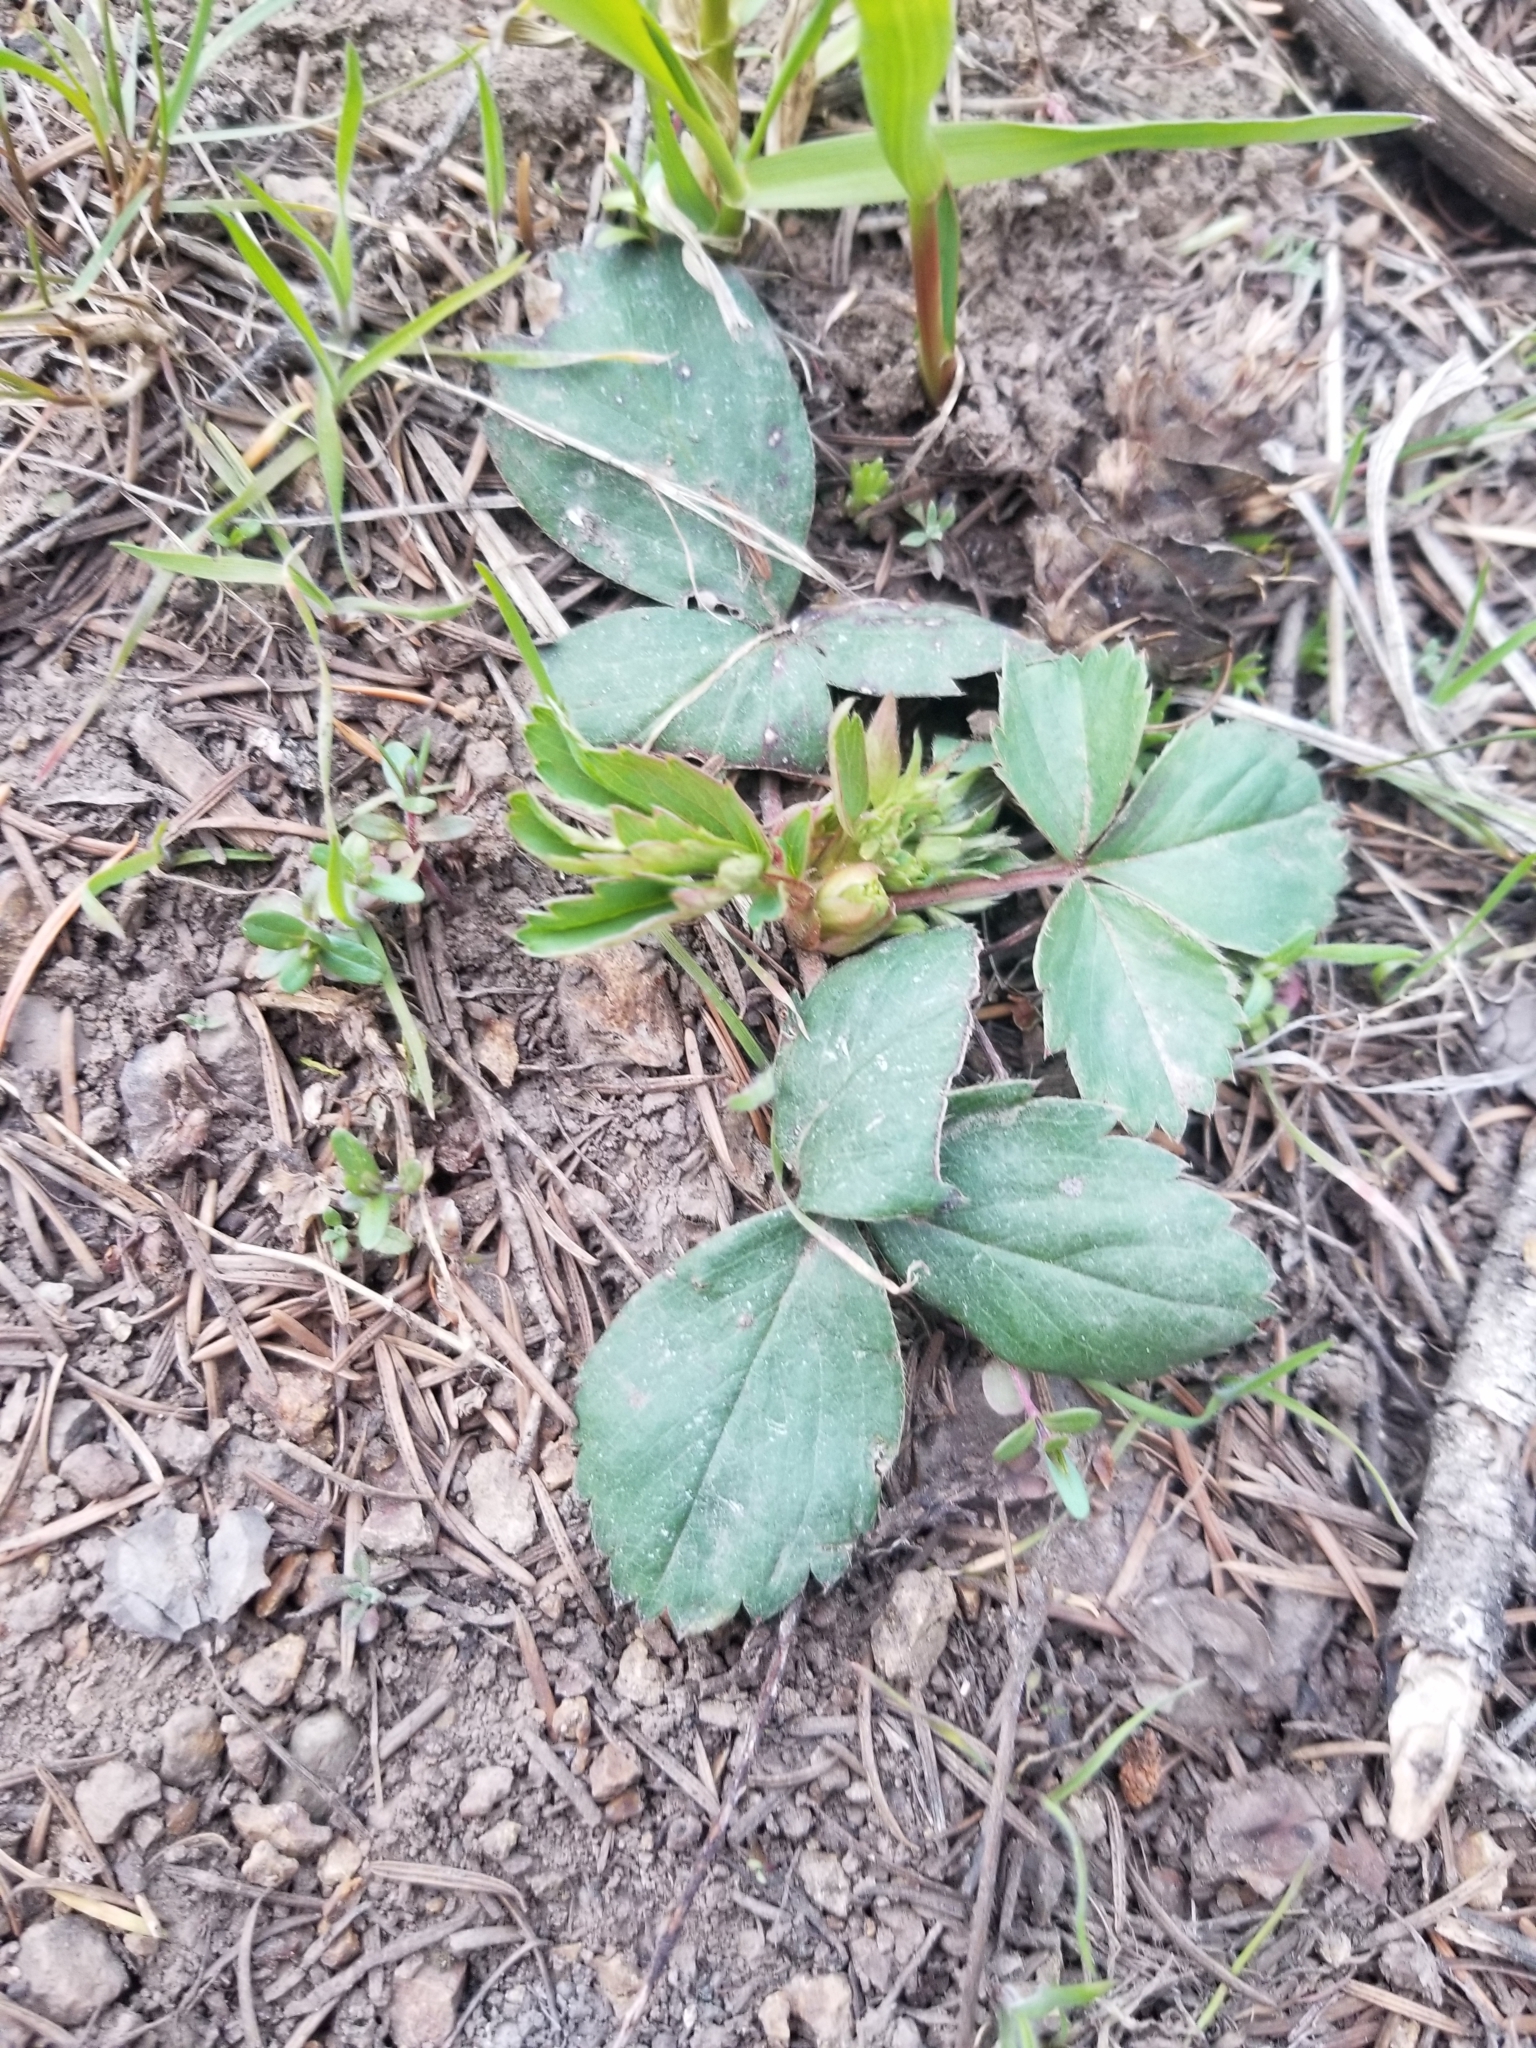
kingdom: Plantae
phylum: Tracheophyta
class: Magnoliopsida
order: Rosales
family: Rosaceae
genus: Fragaria
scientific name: Fragaria virginiana
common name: Thickleaved wild strawberry
